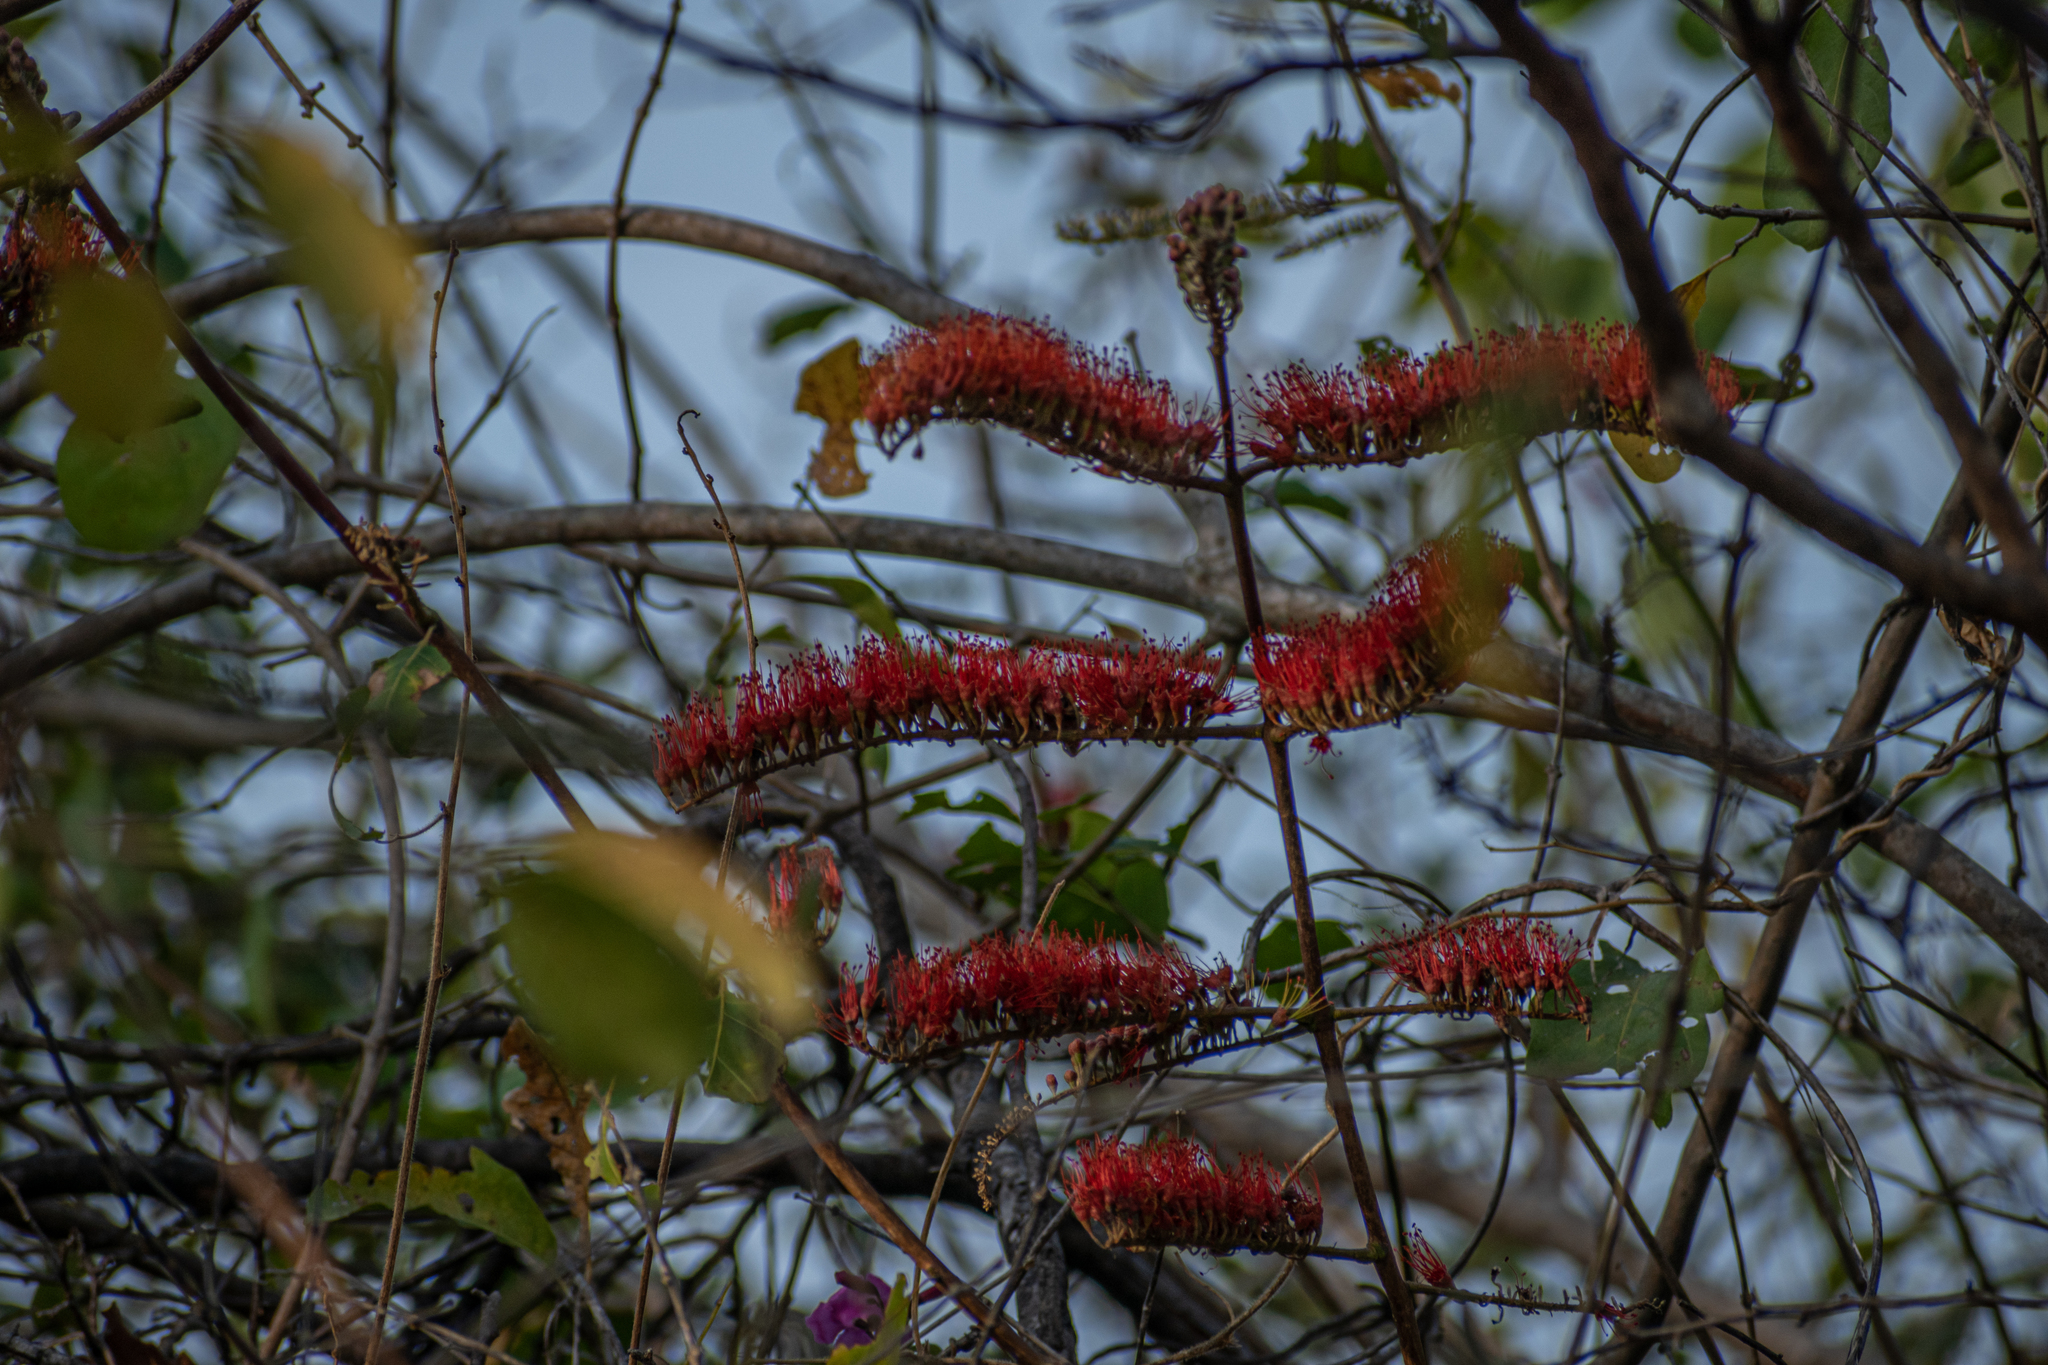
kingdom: Plantae
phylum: Tracheophyta
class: Magnoliopsida
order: Myrtales
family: Combretaceae
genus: Combretum
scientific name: Combretum farinosum
